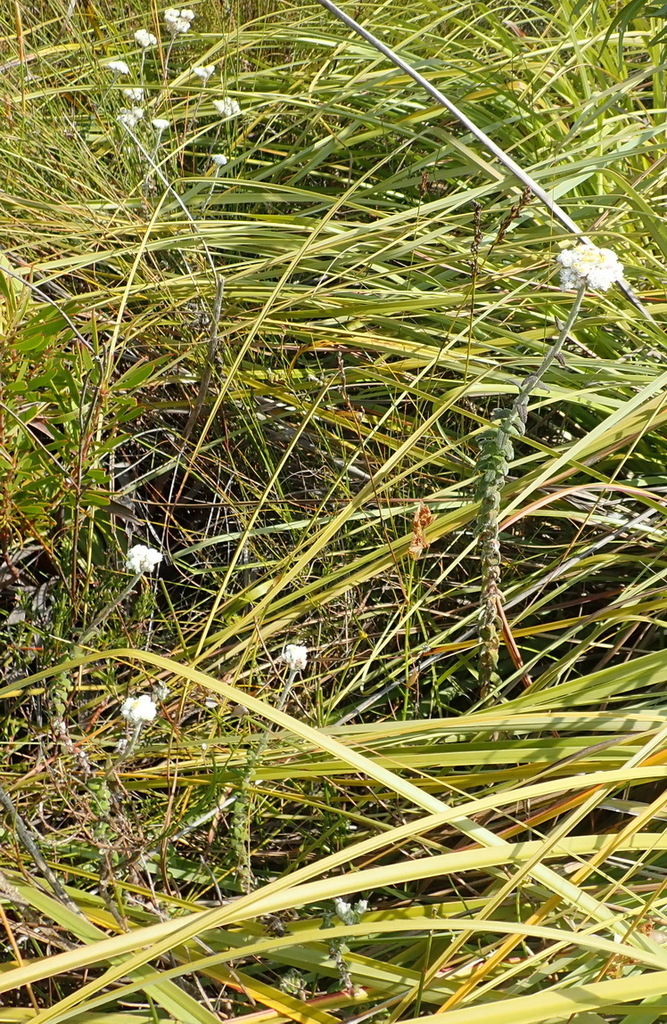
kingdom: Plantae
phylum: Tracheophyta
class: Magnoliopsida
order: Asterales
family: Asteraceae
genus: Helichrysum
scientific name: Helichrysum felinum
